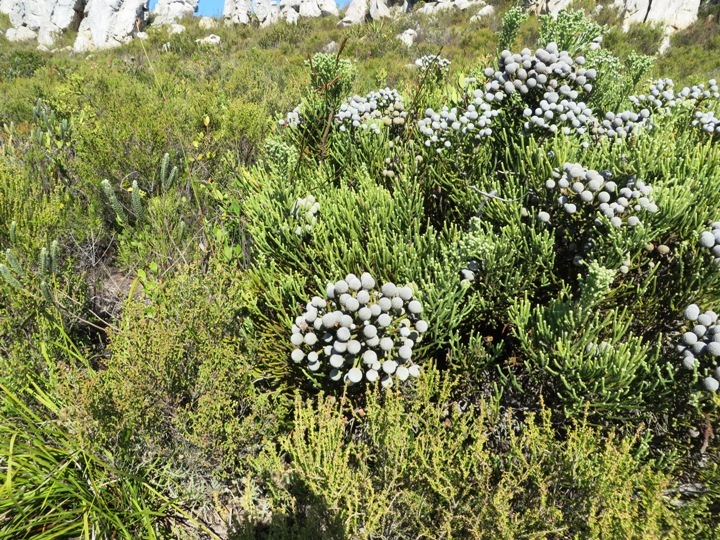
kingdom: Plantae
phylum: Tracheophyta
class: Magnoliopsida
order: Bruniales
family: Bruniaceae
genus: Brunia
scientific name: Brunia neglecta
